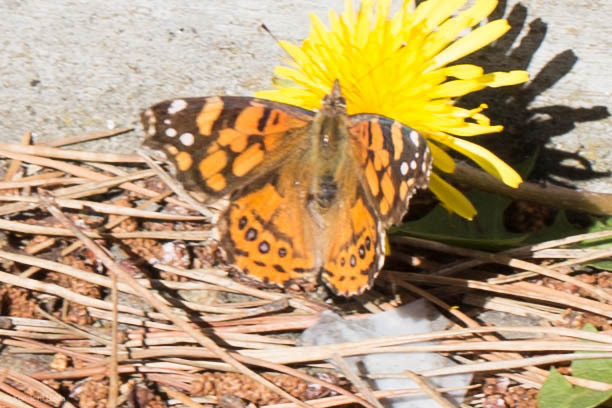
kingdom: Animalia
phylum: Arthropoda
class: Insecta
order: Lepidoptera
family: Nymphalidae
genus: Vanessa
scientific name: Vanessa annabella
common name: West coast lady
